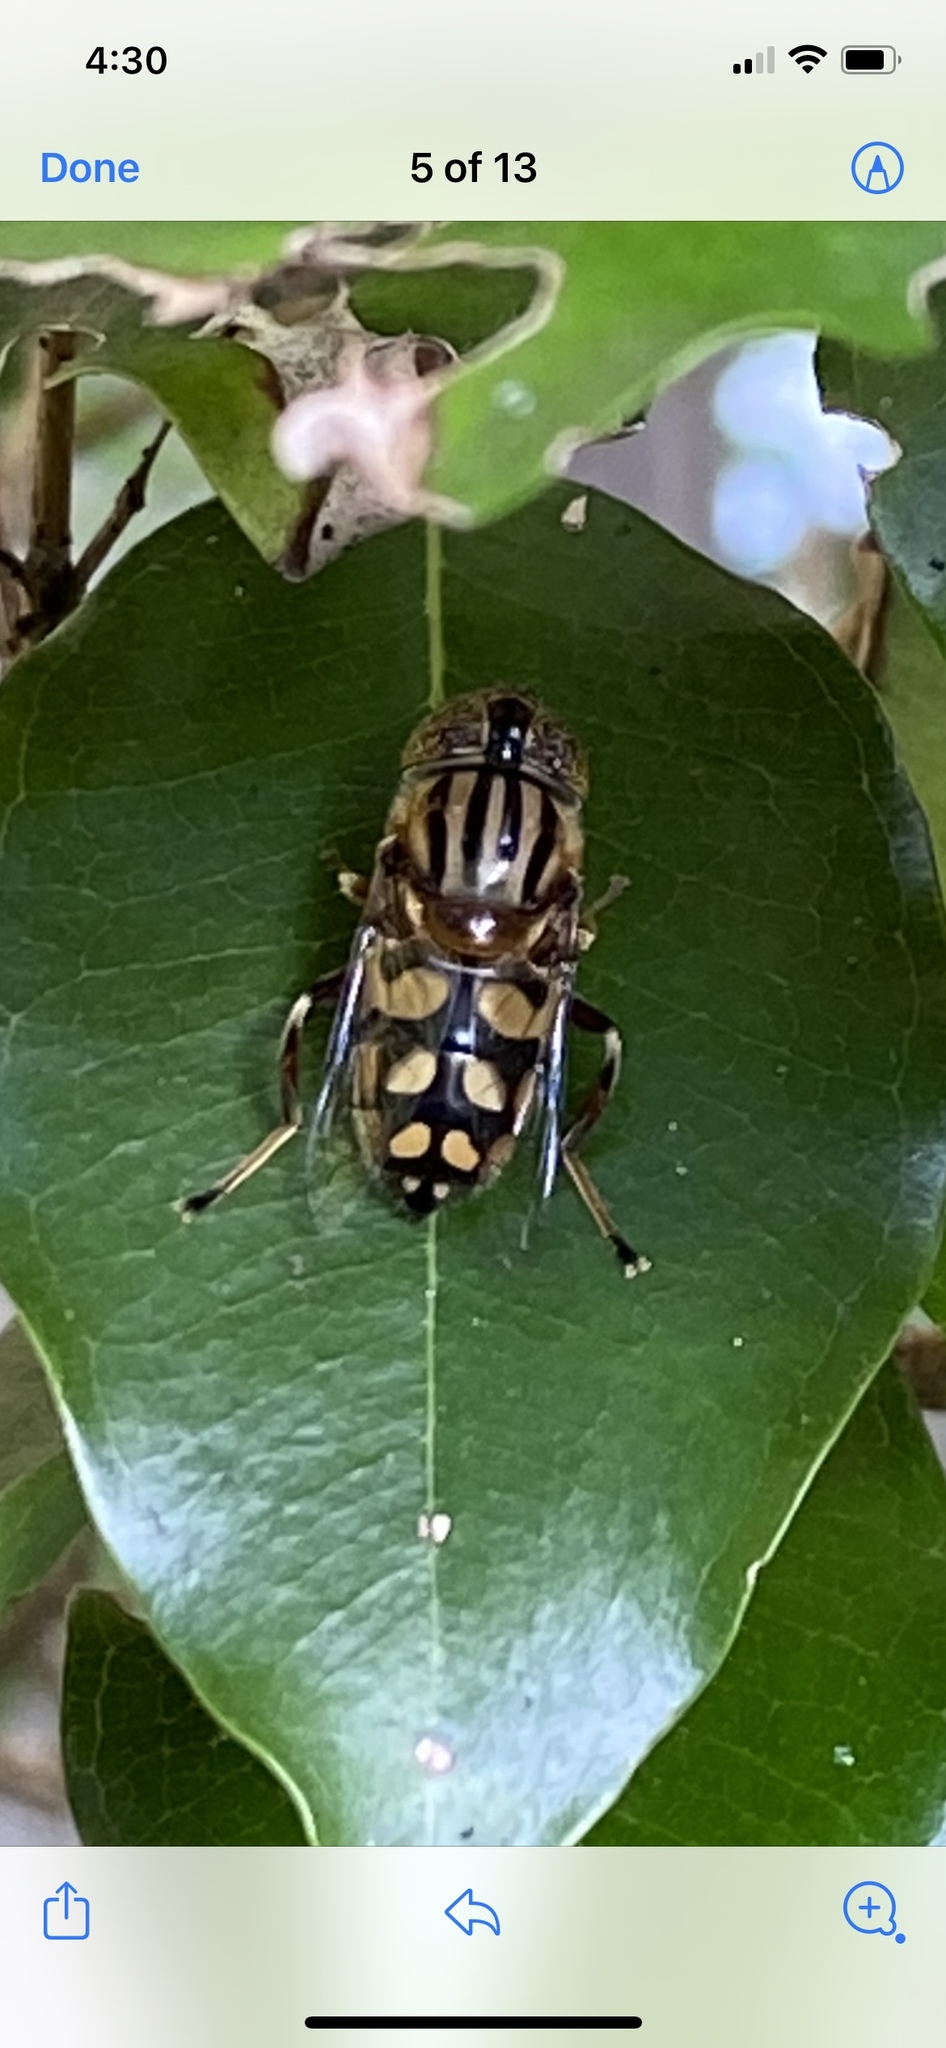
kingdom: Animalia
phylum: Arthropoda
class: Insecta
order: Diptera
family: Syrphidae
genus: Eristalinus
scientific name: Eristalinus punctulatus
